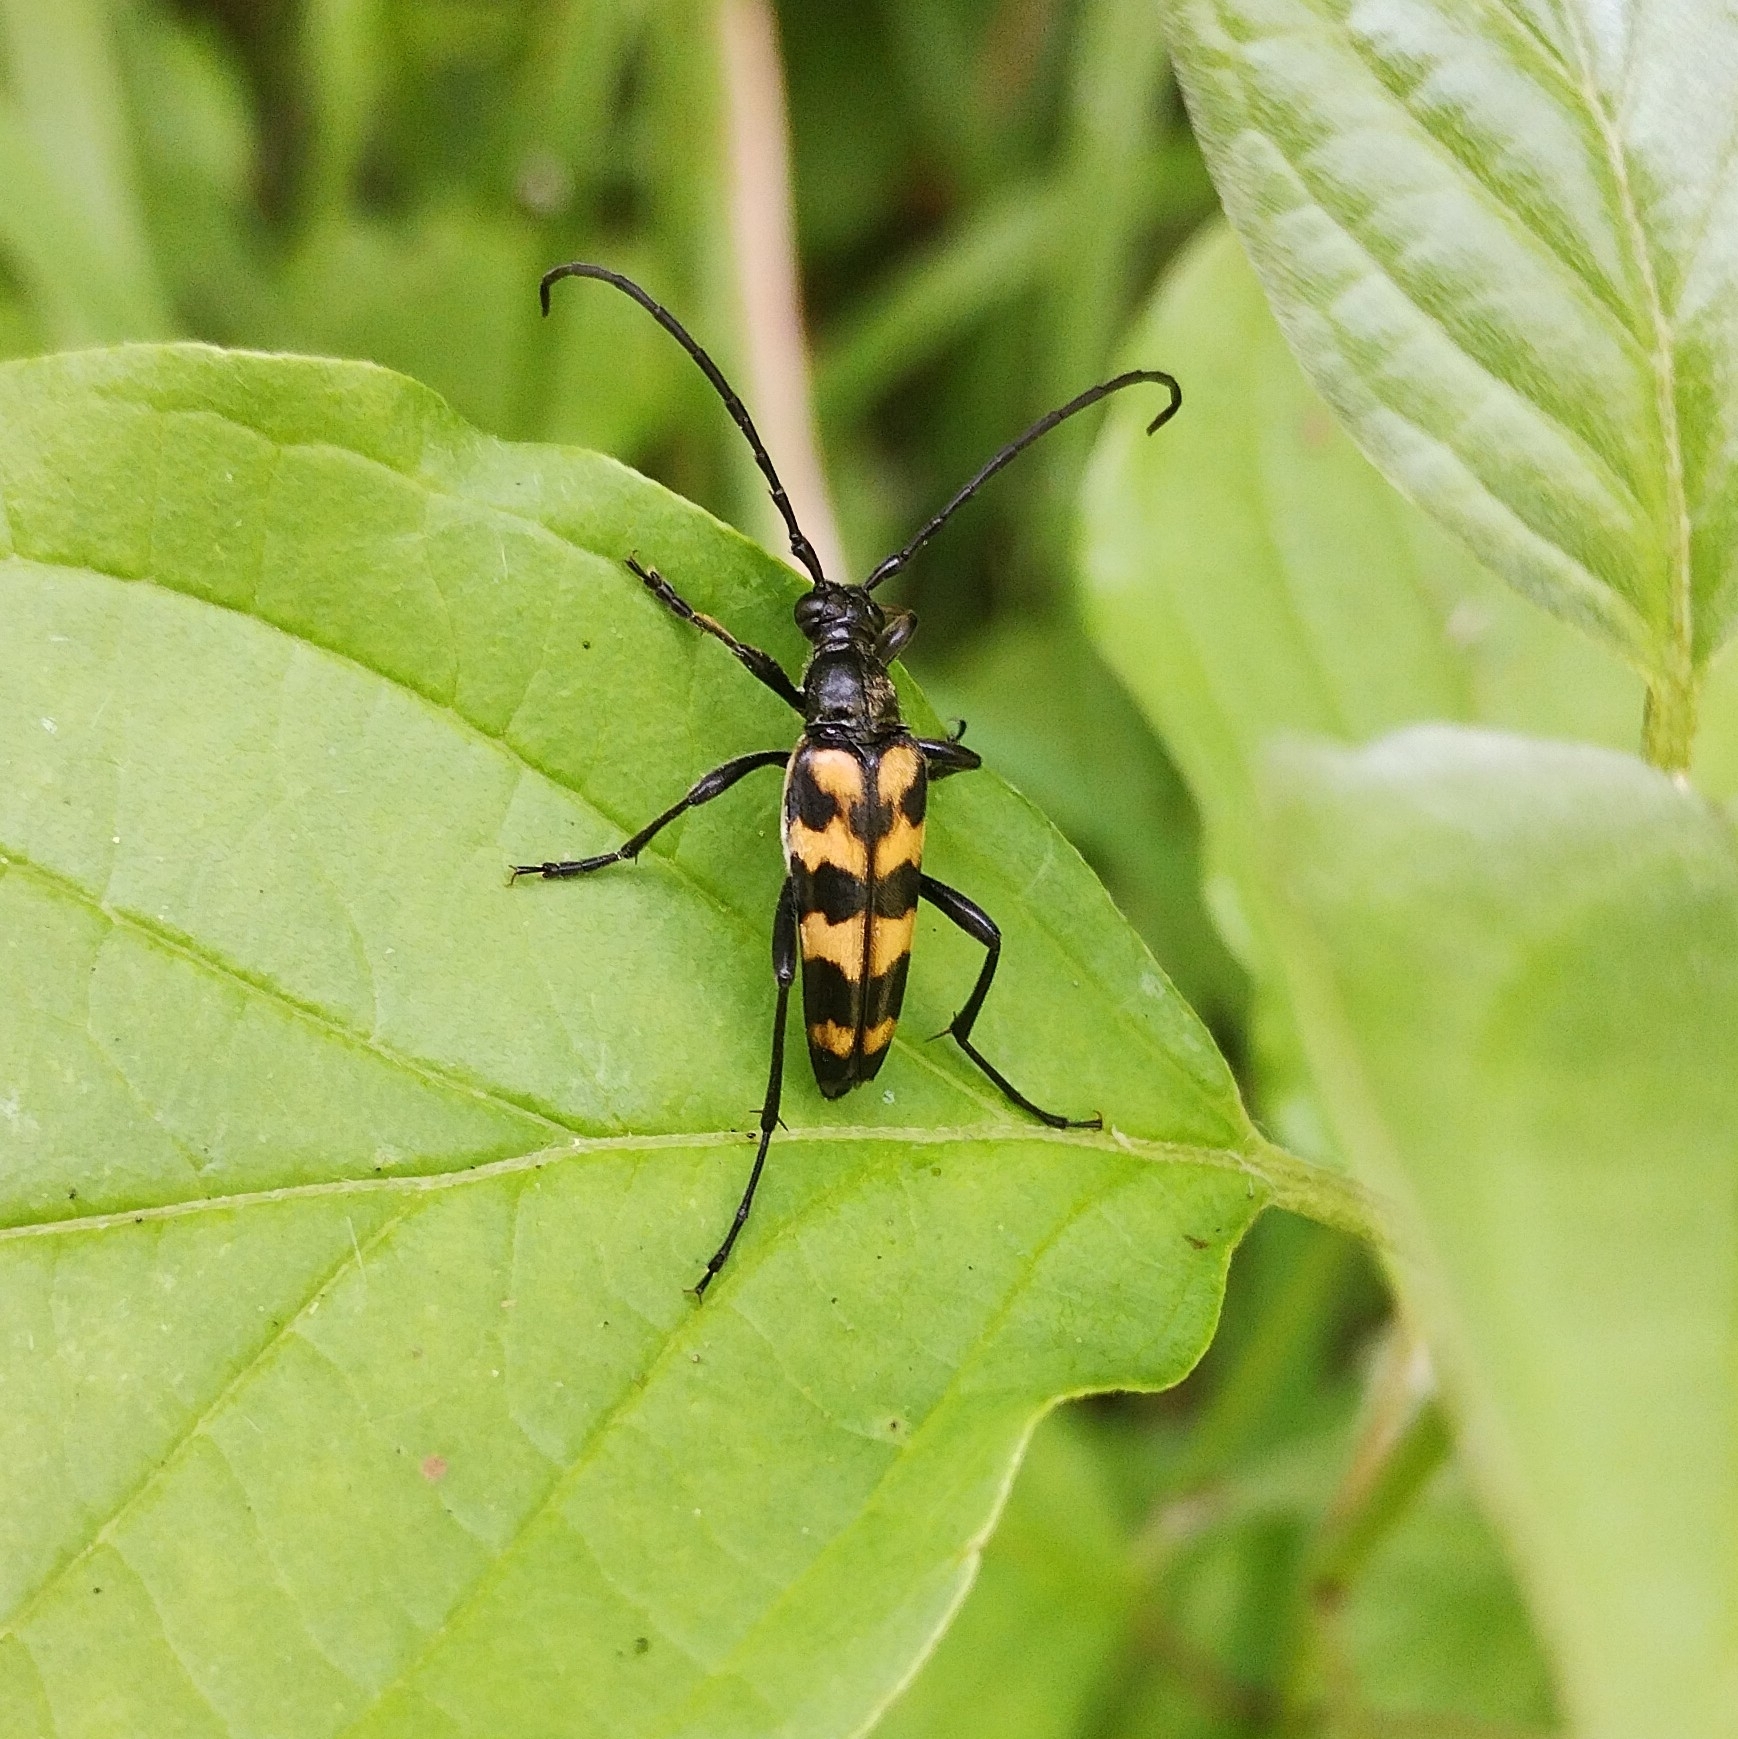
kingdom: Animalia
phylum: Arthropoda
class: Insecta
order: Coleoptera
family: Cerambycidae
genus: Leptura
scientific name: Leptura quadrifasciata
